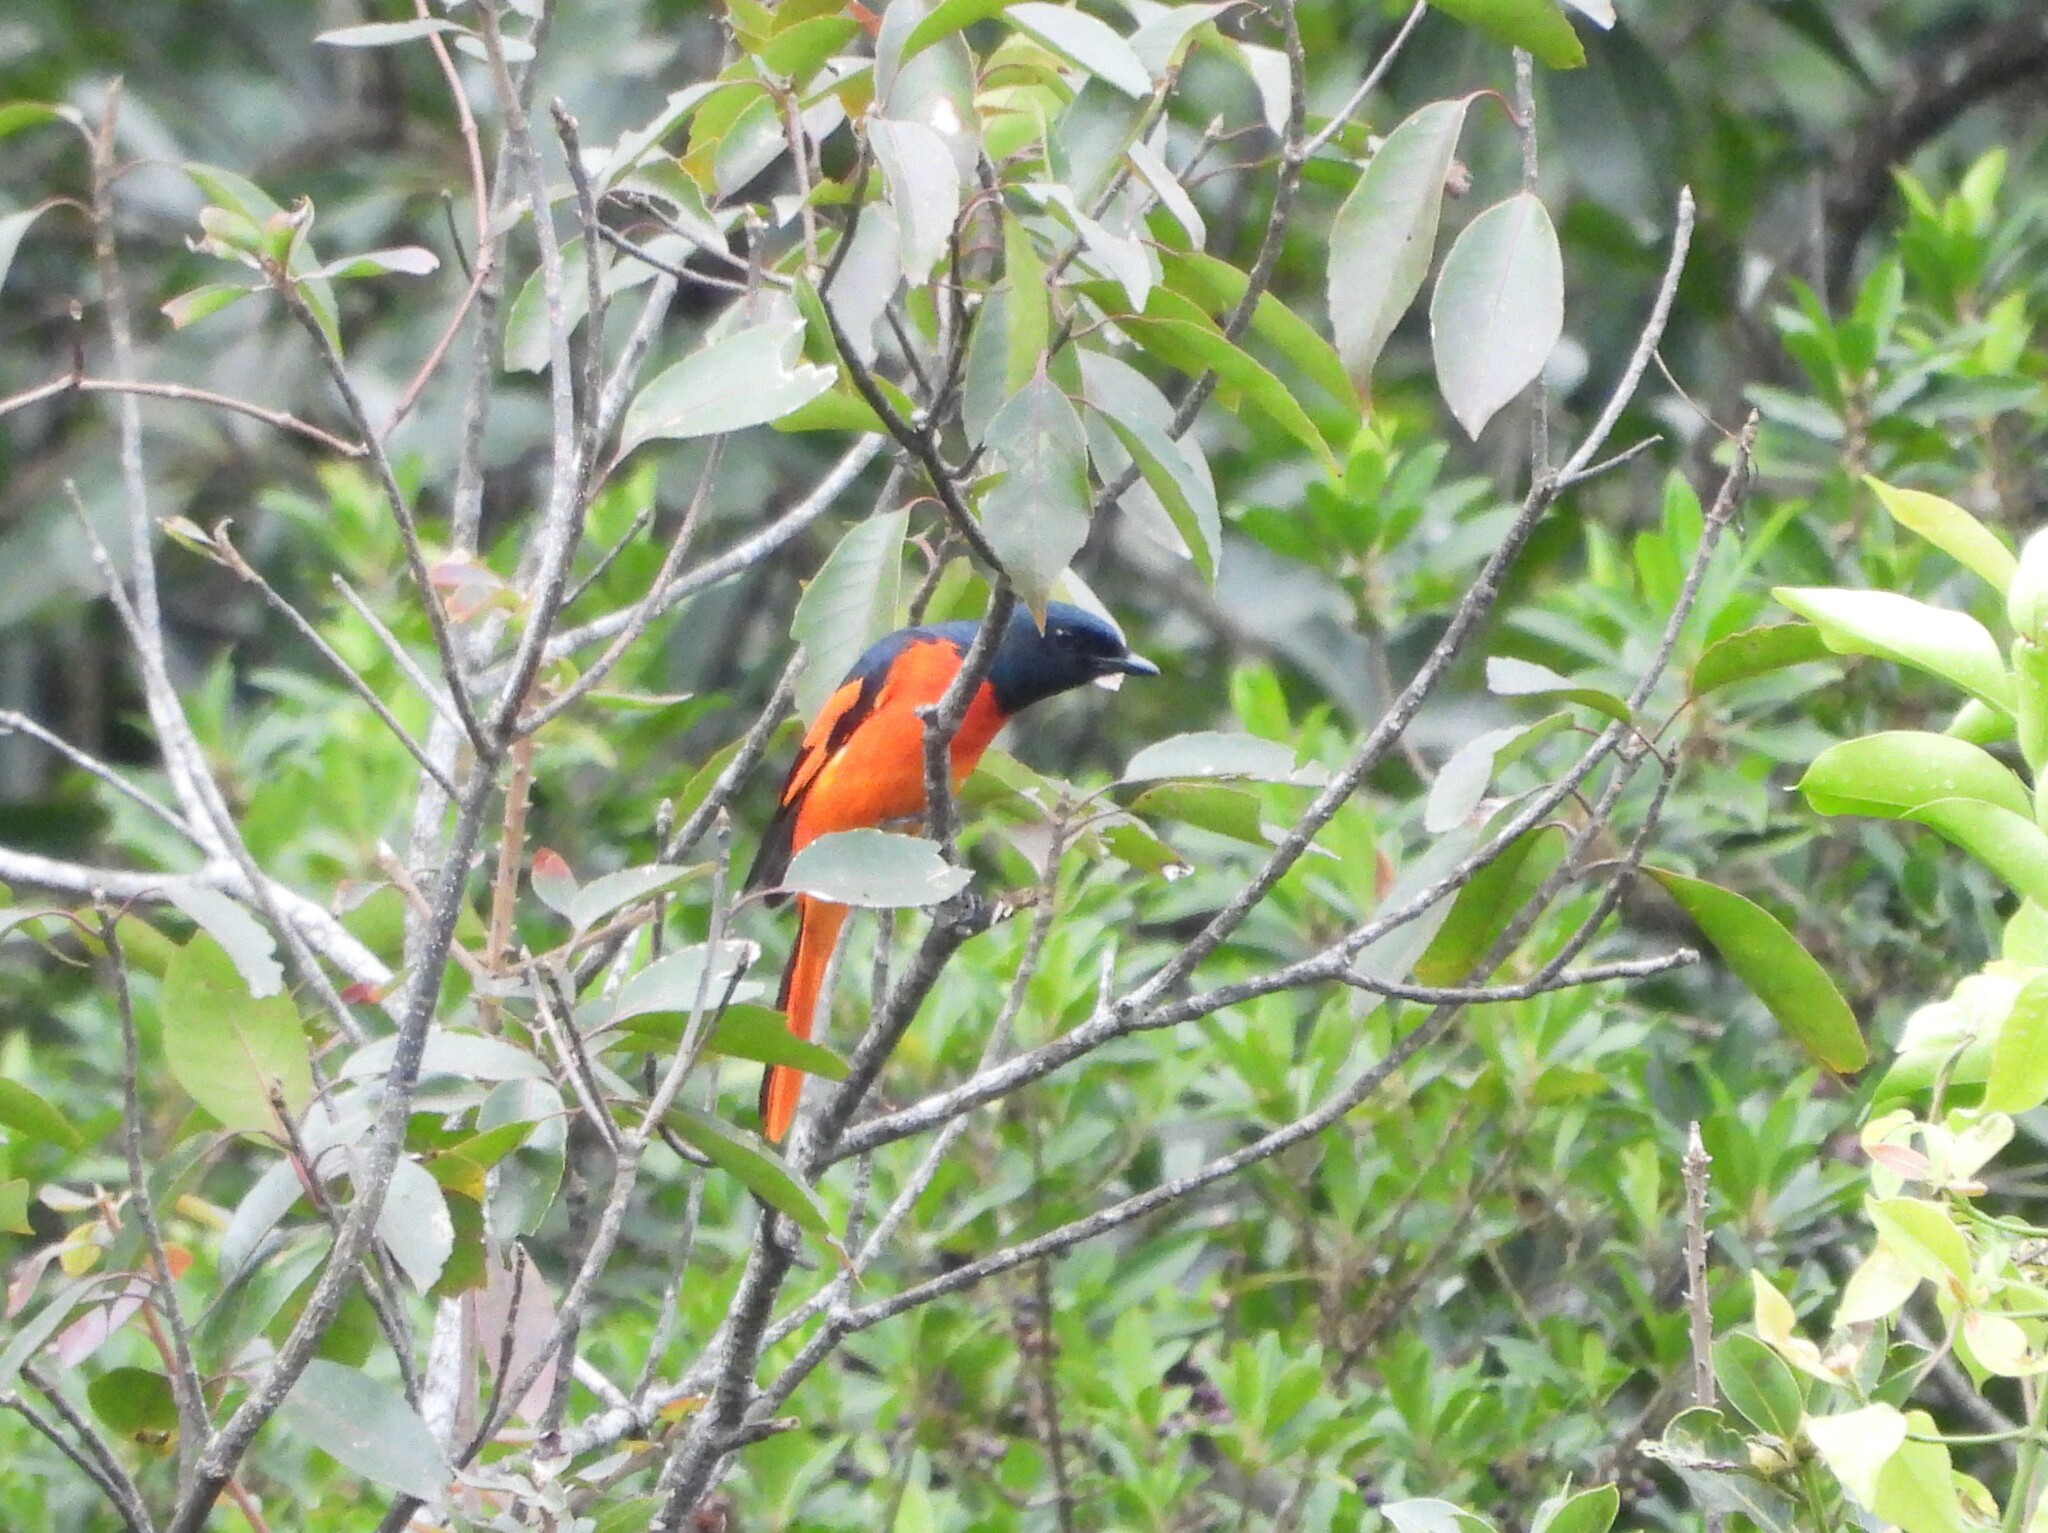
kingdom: Animalia
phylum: Chordata
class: Aves
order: Passeriformes
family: Campephagidae
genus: Pericrocotus
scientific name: Pericrocotus speciosus
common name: Scarlet minivet
